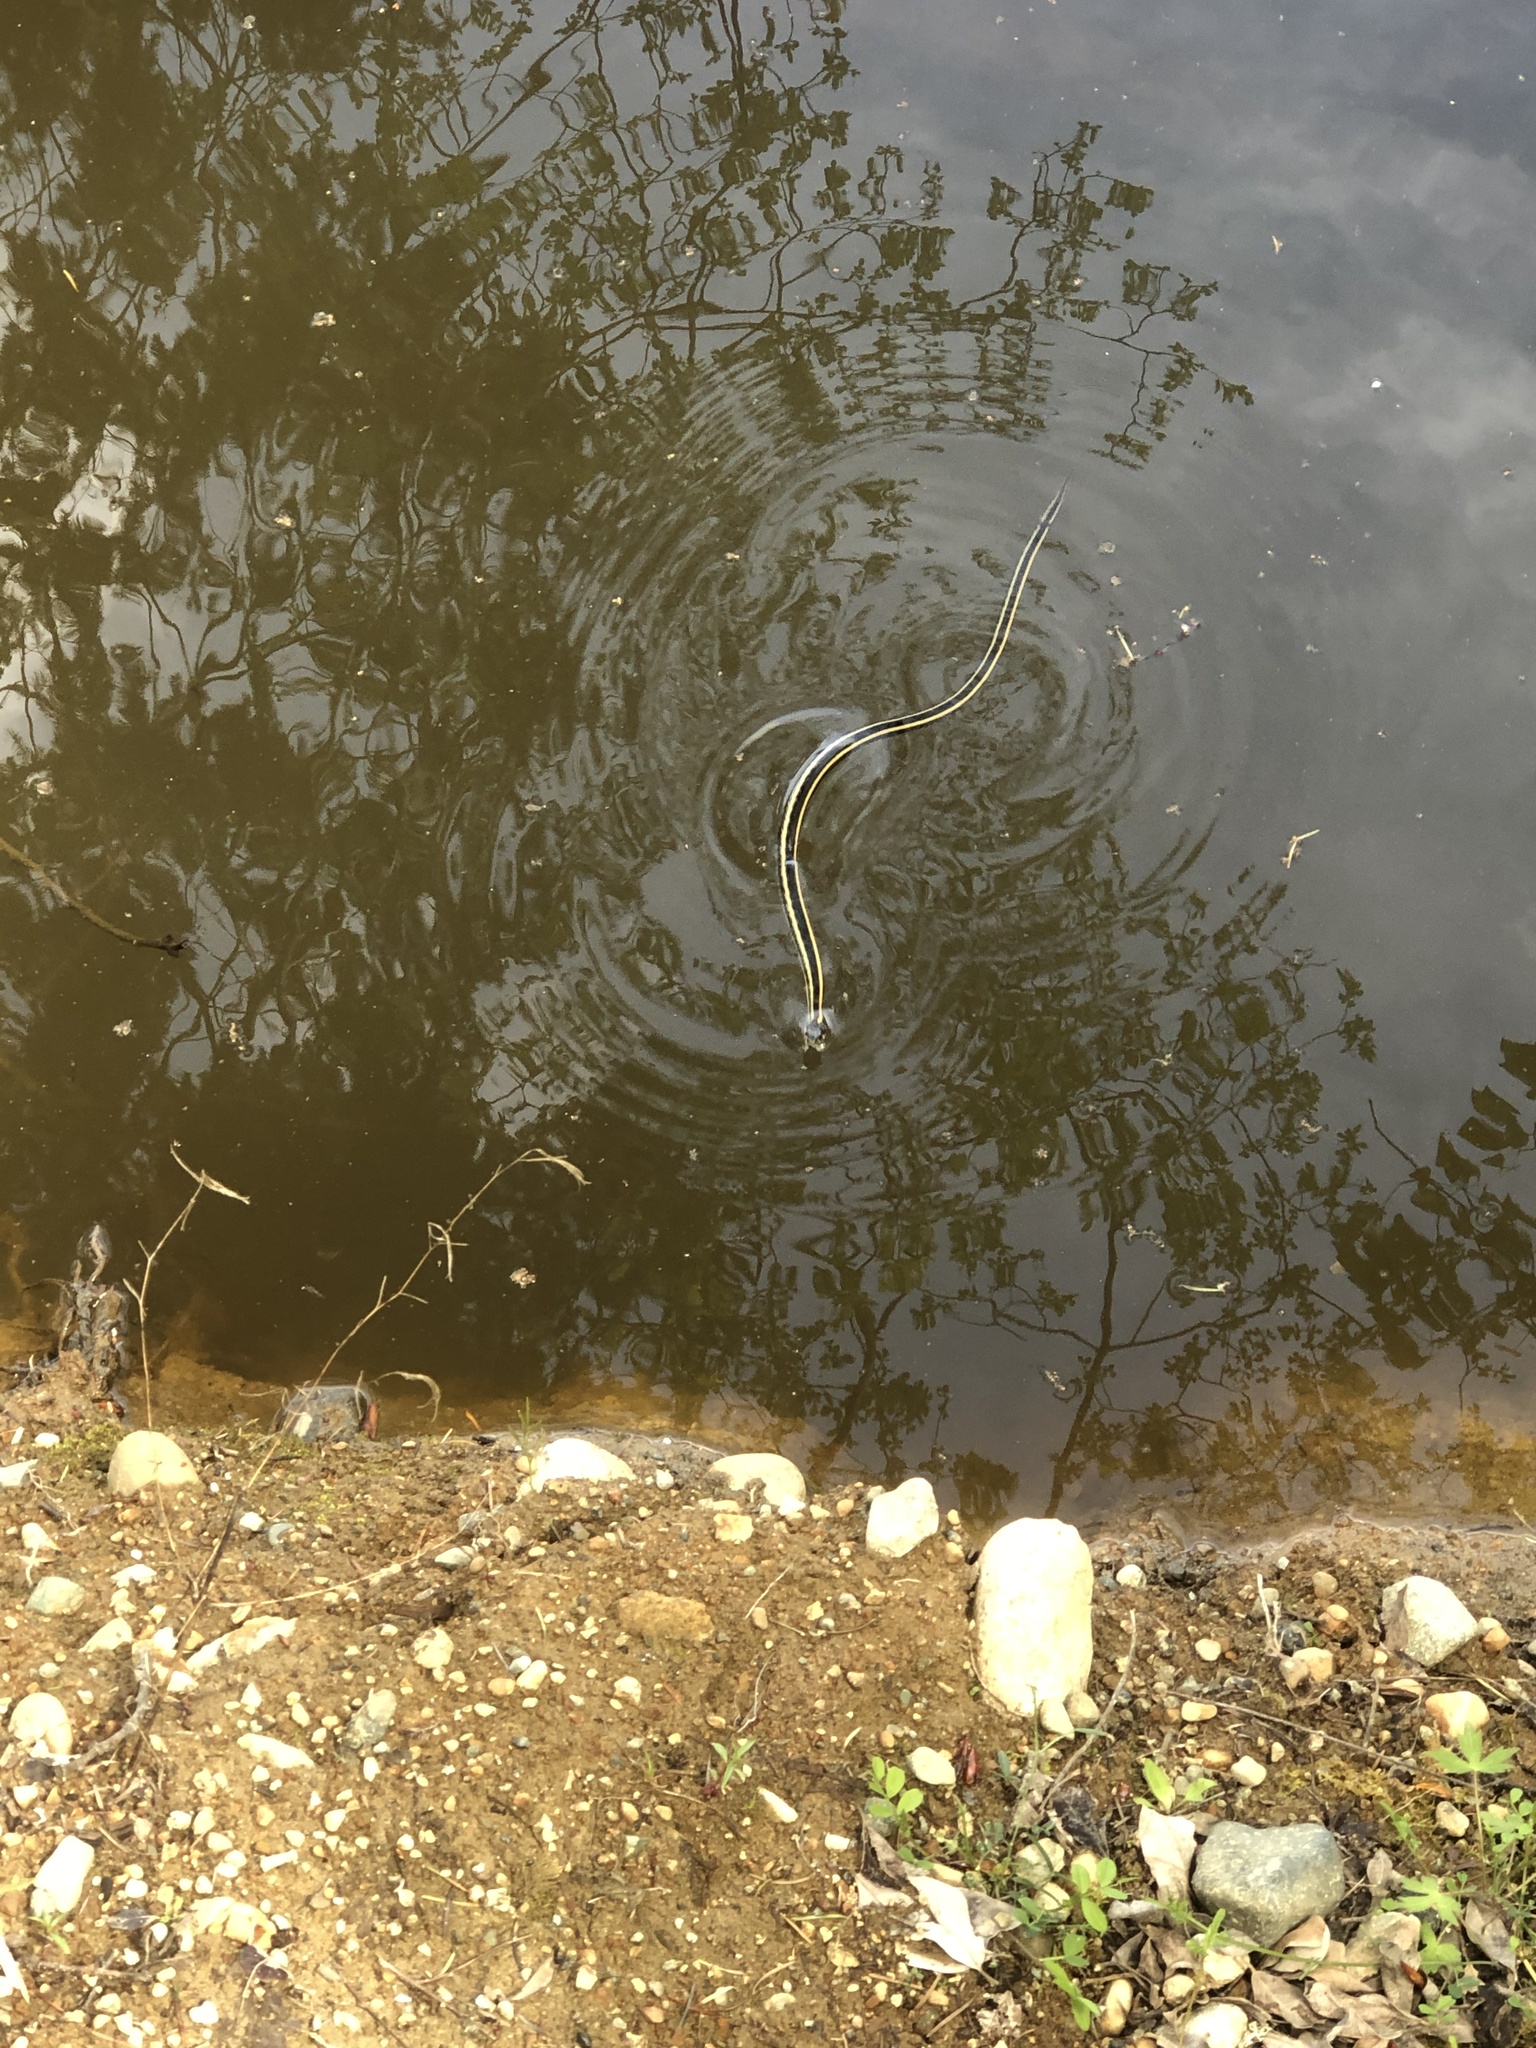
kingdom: Animalia
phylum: Chordata
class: Squamata
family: Colubridae
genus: Thamnophis
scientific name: Thamnophis sirtalis
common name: Common garter snake
